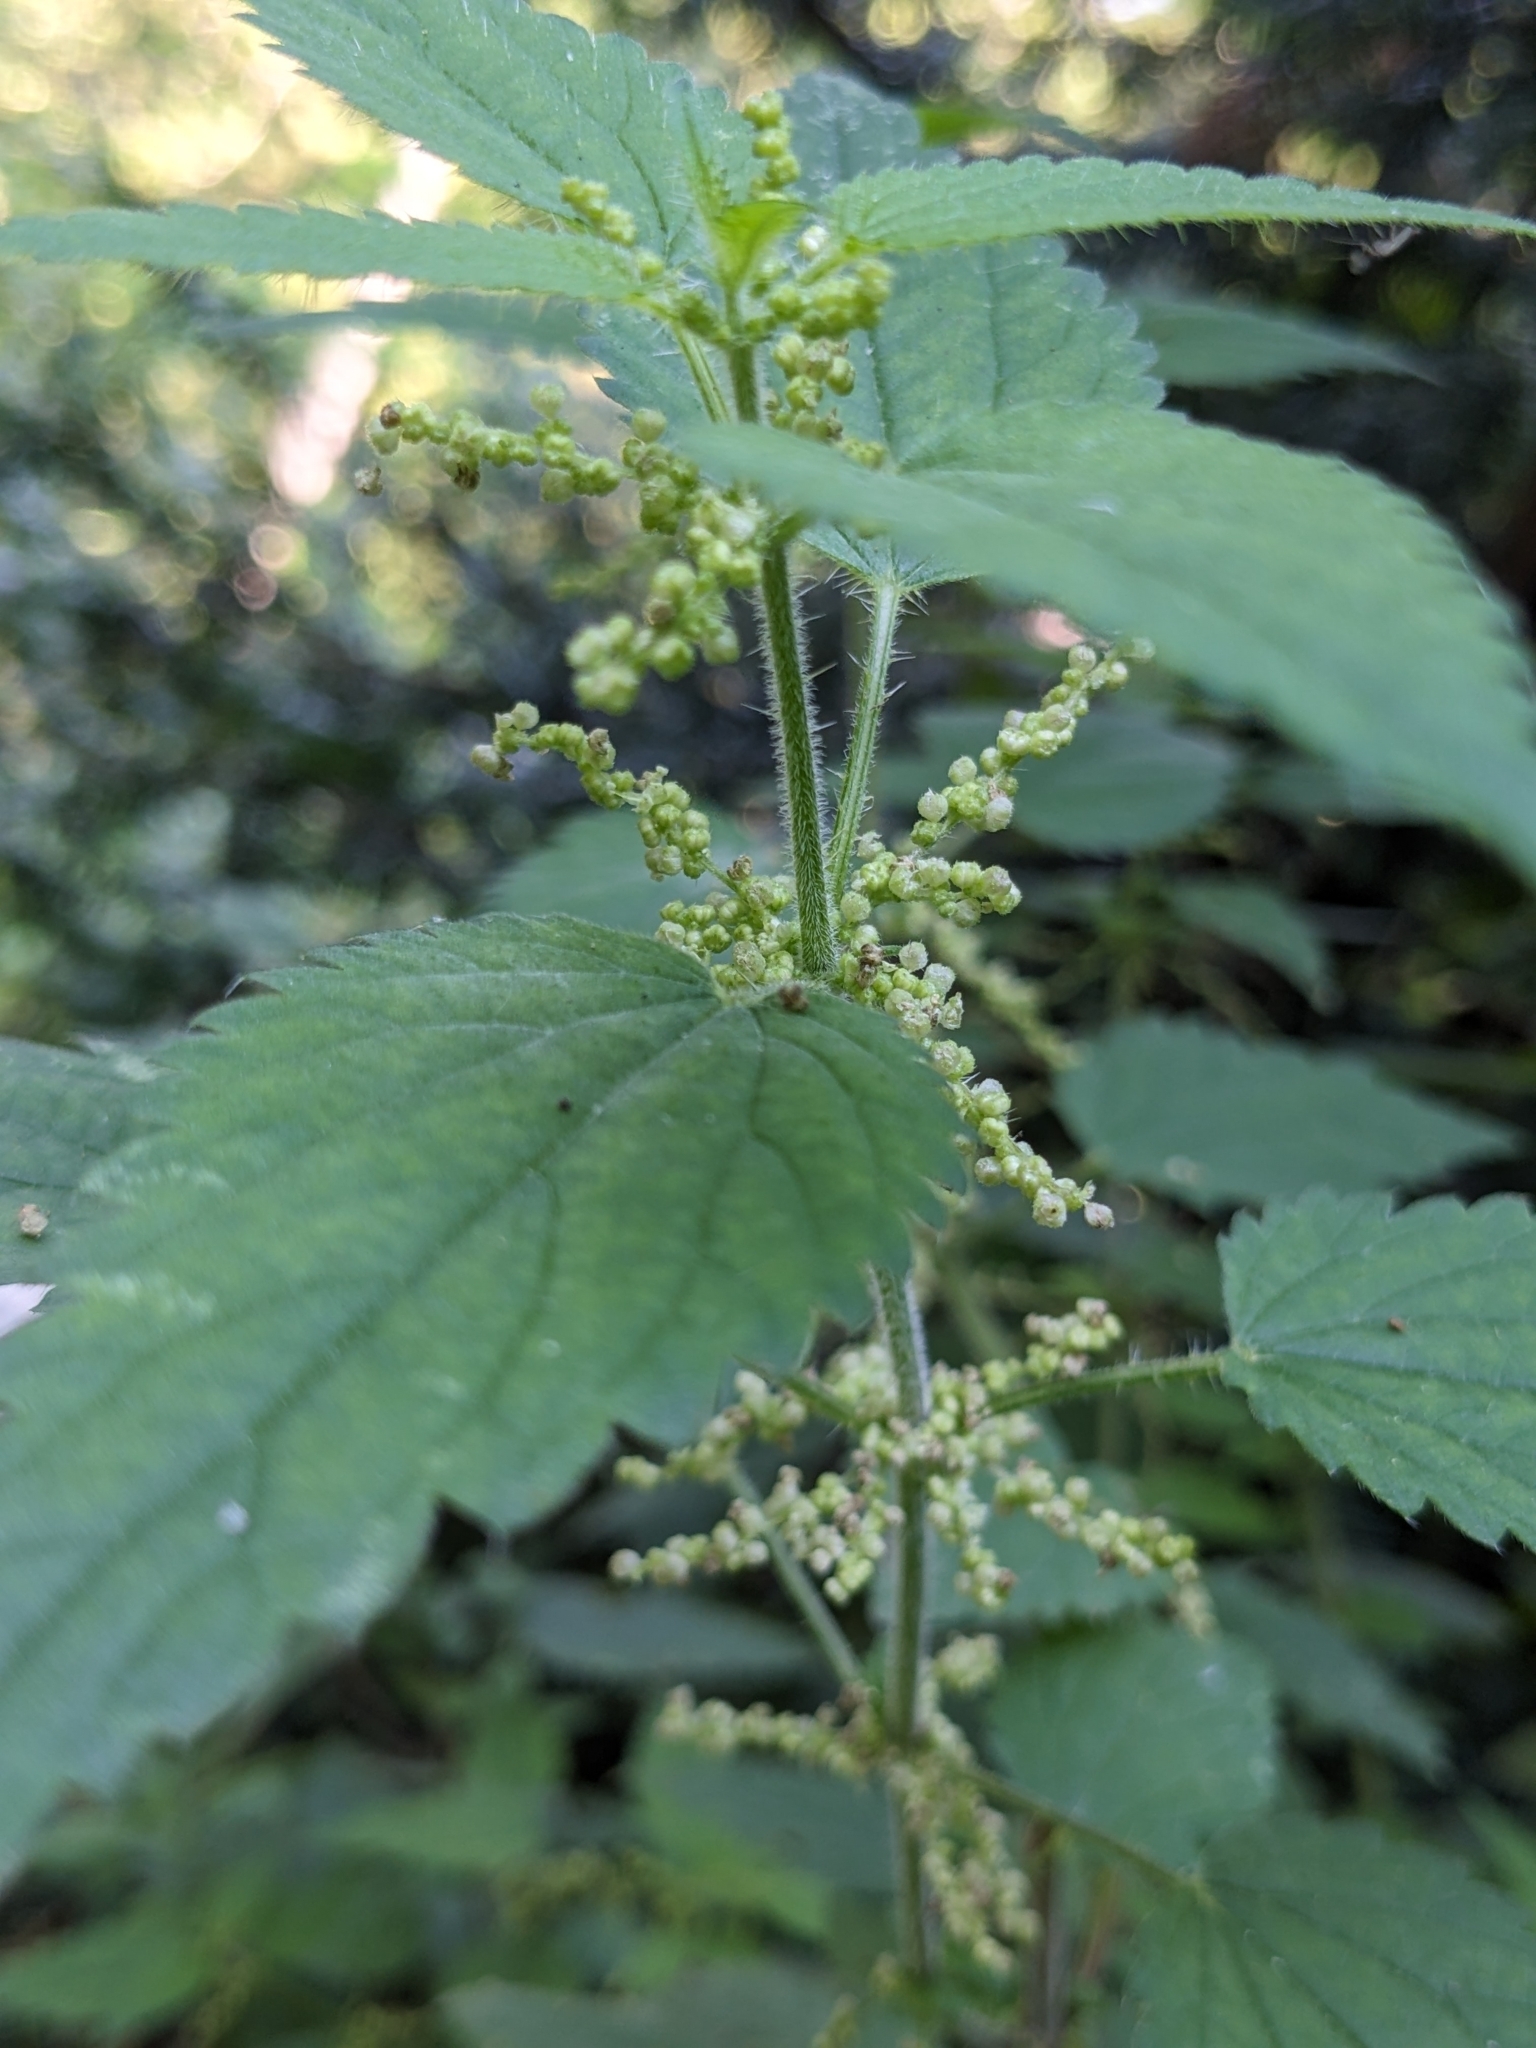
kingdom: Plantae
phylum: Tracheophyta
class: Magnoliopsida
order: Rosales
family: Urticaceae
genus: Urtica
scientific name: Urtica dioica
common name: Common nettle
